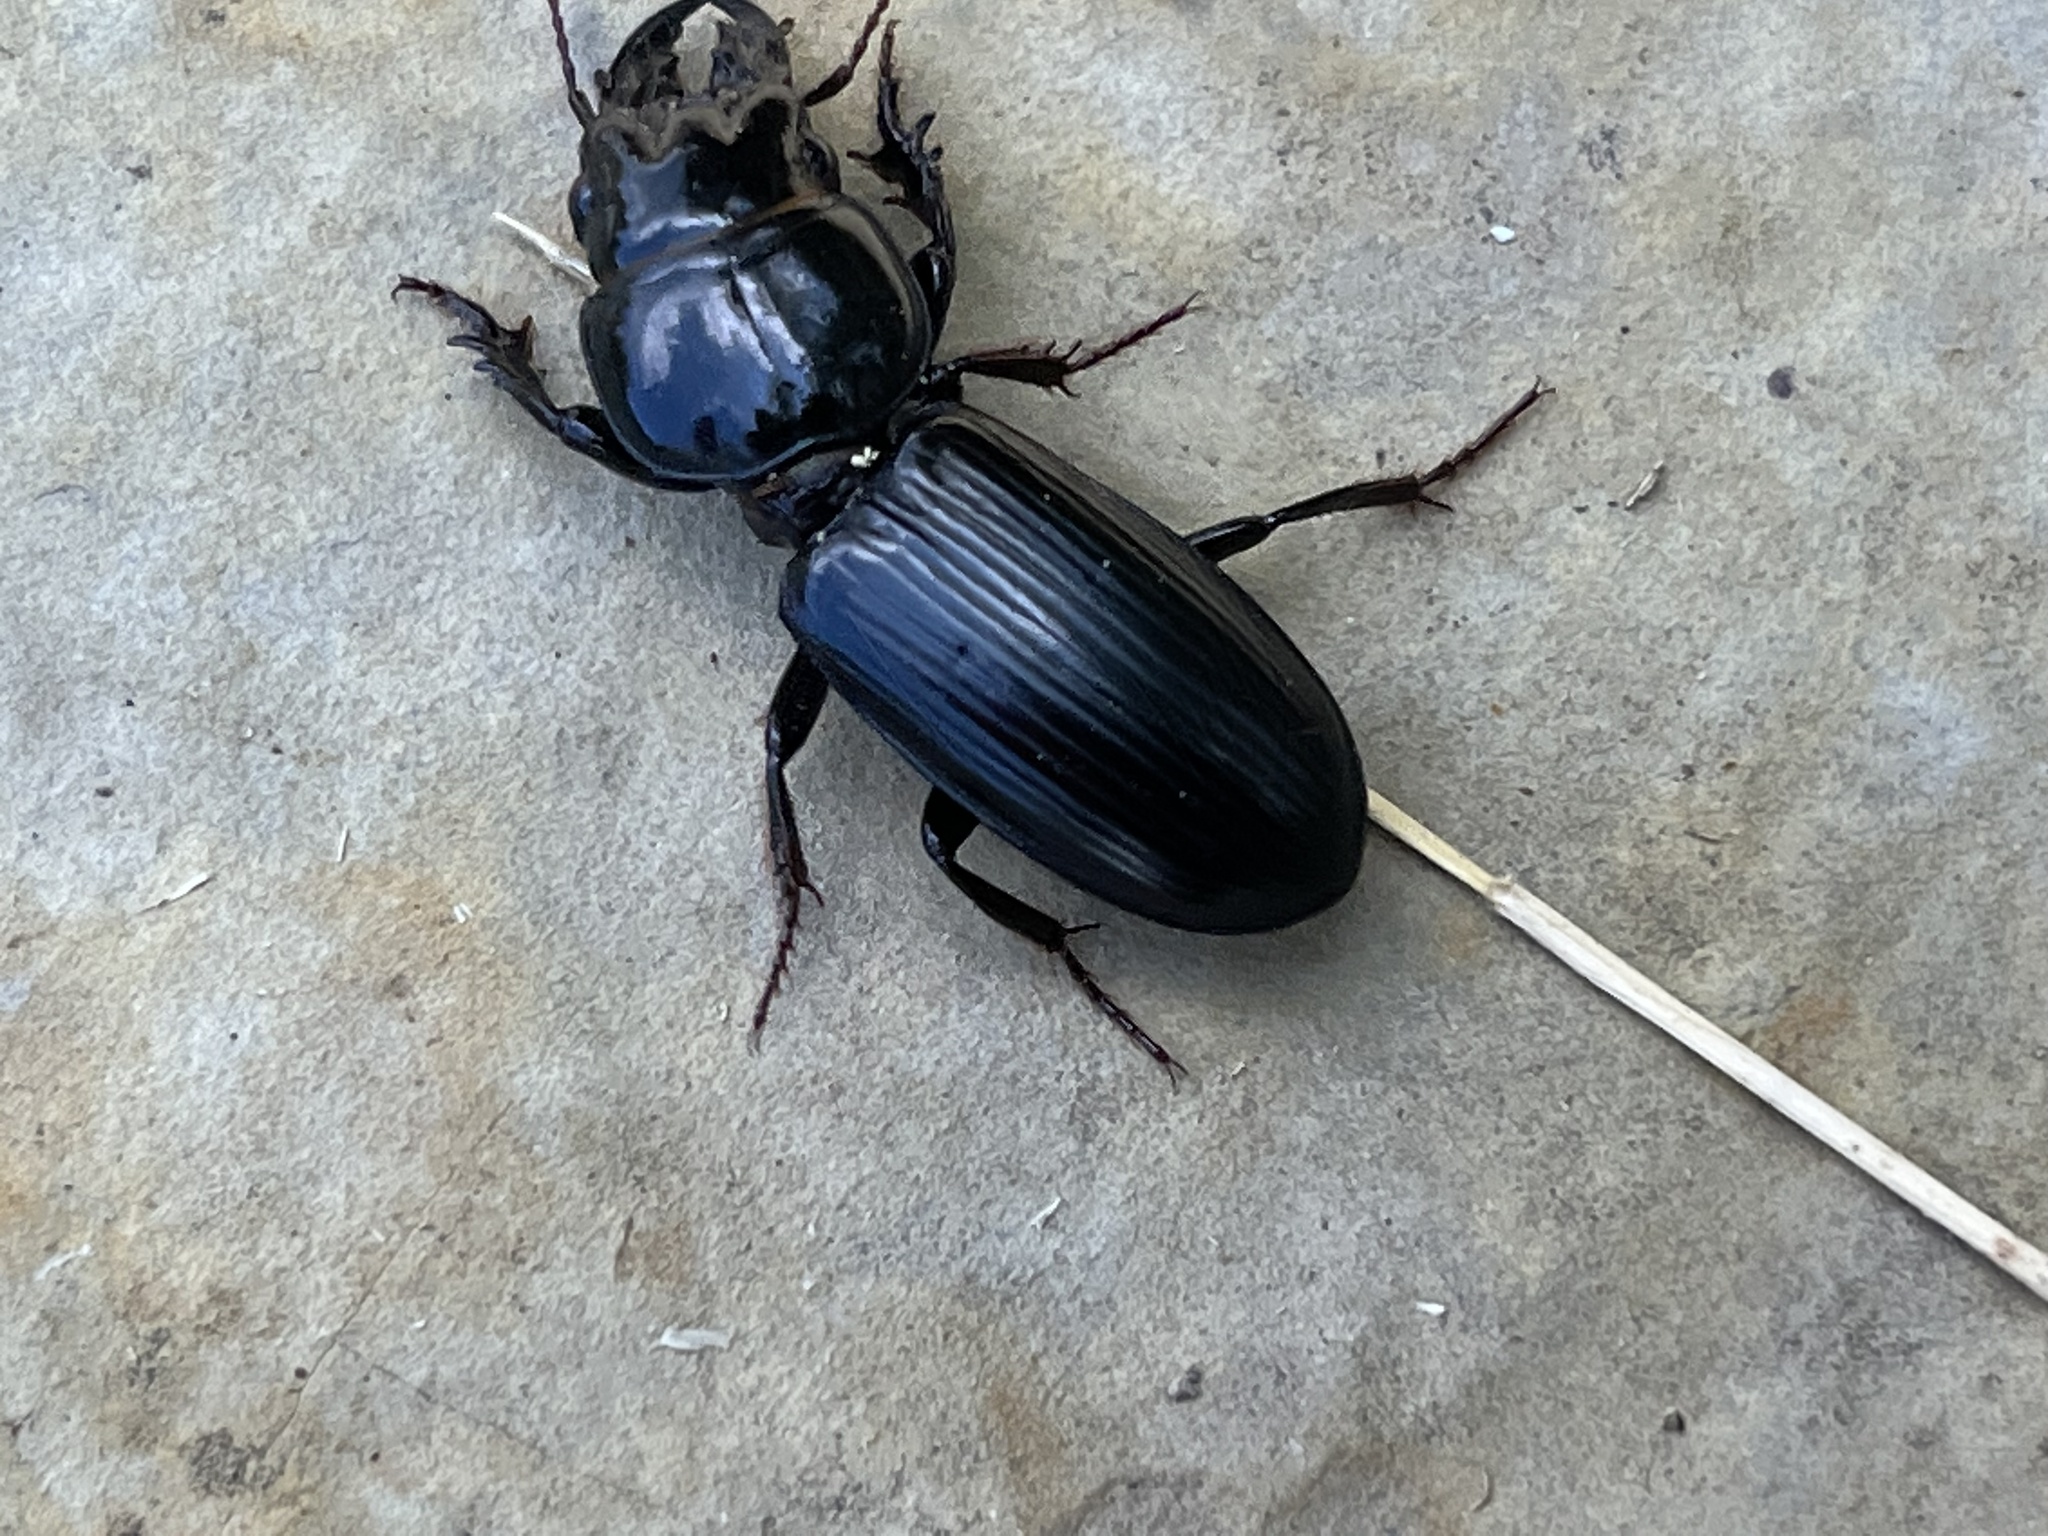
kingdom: Animalia
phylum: Arthropoda
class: Insecta
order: Coleoptera
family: Carabidae
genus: Scarites
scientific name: Scarites subterraneus
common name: Big-headed ground beetle
